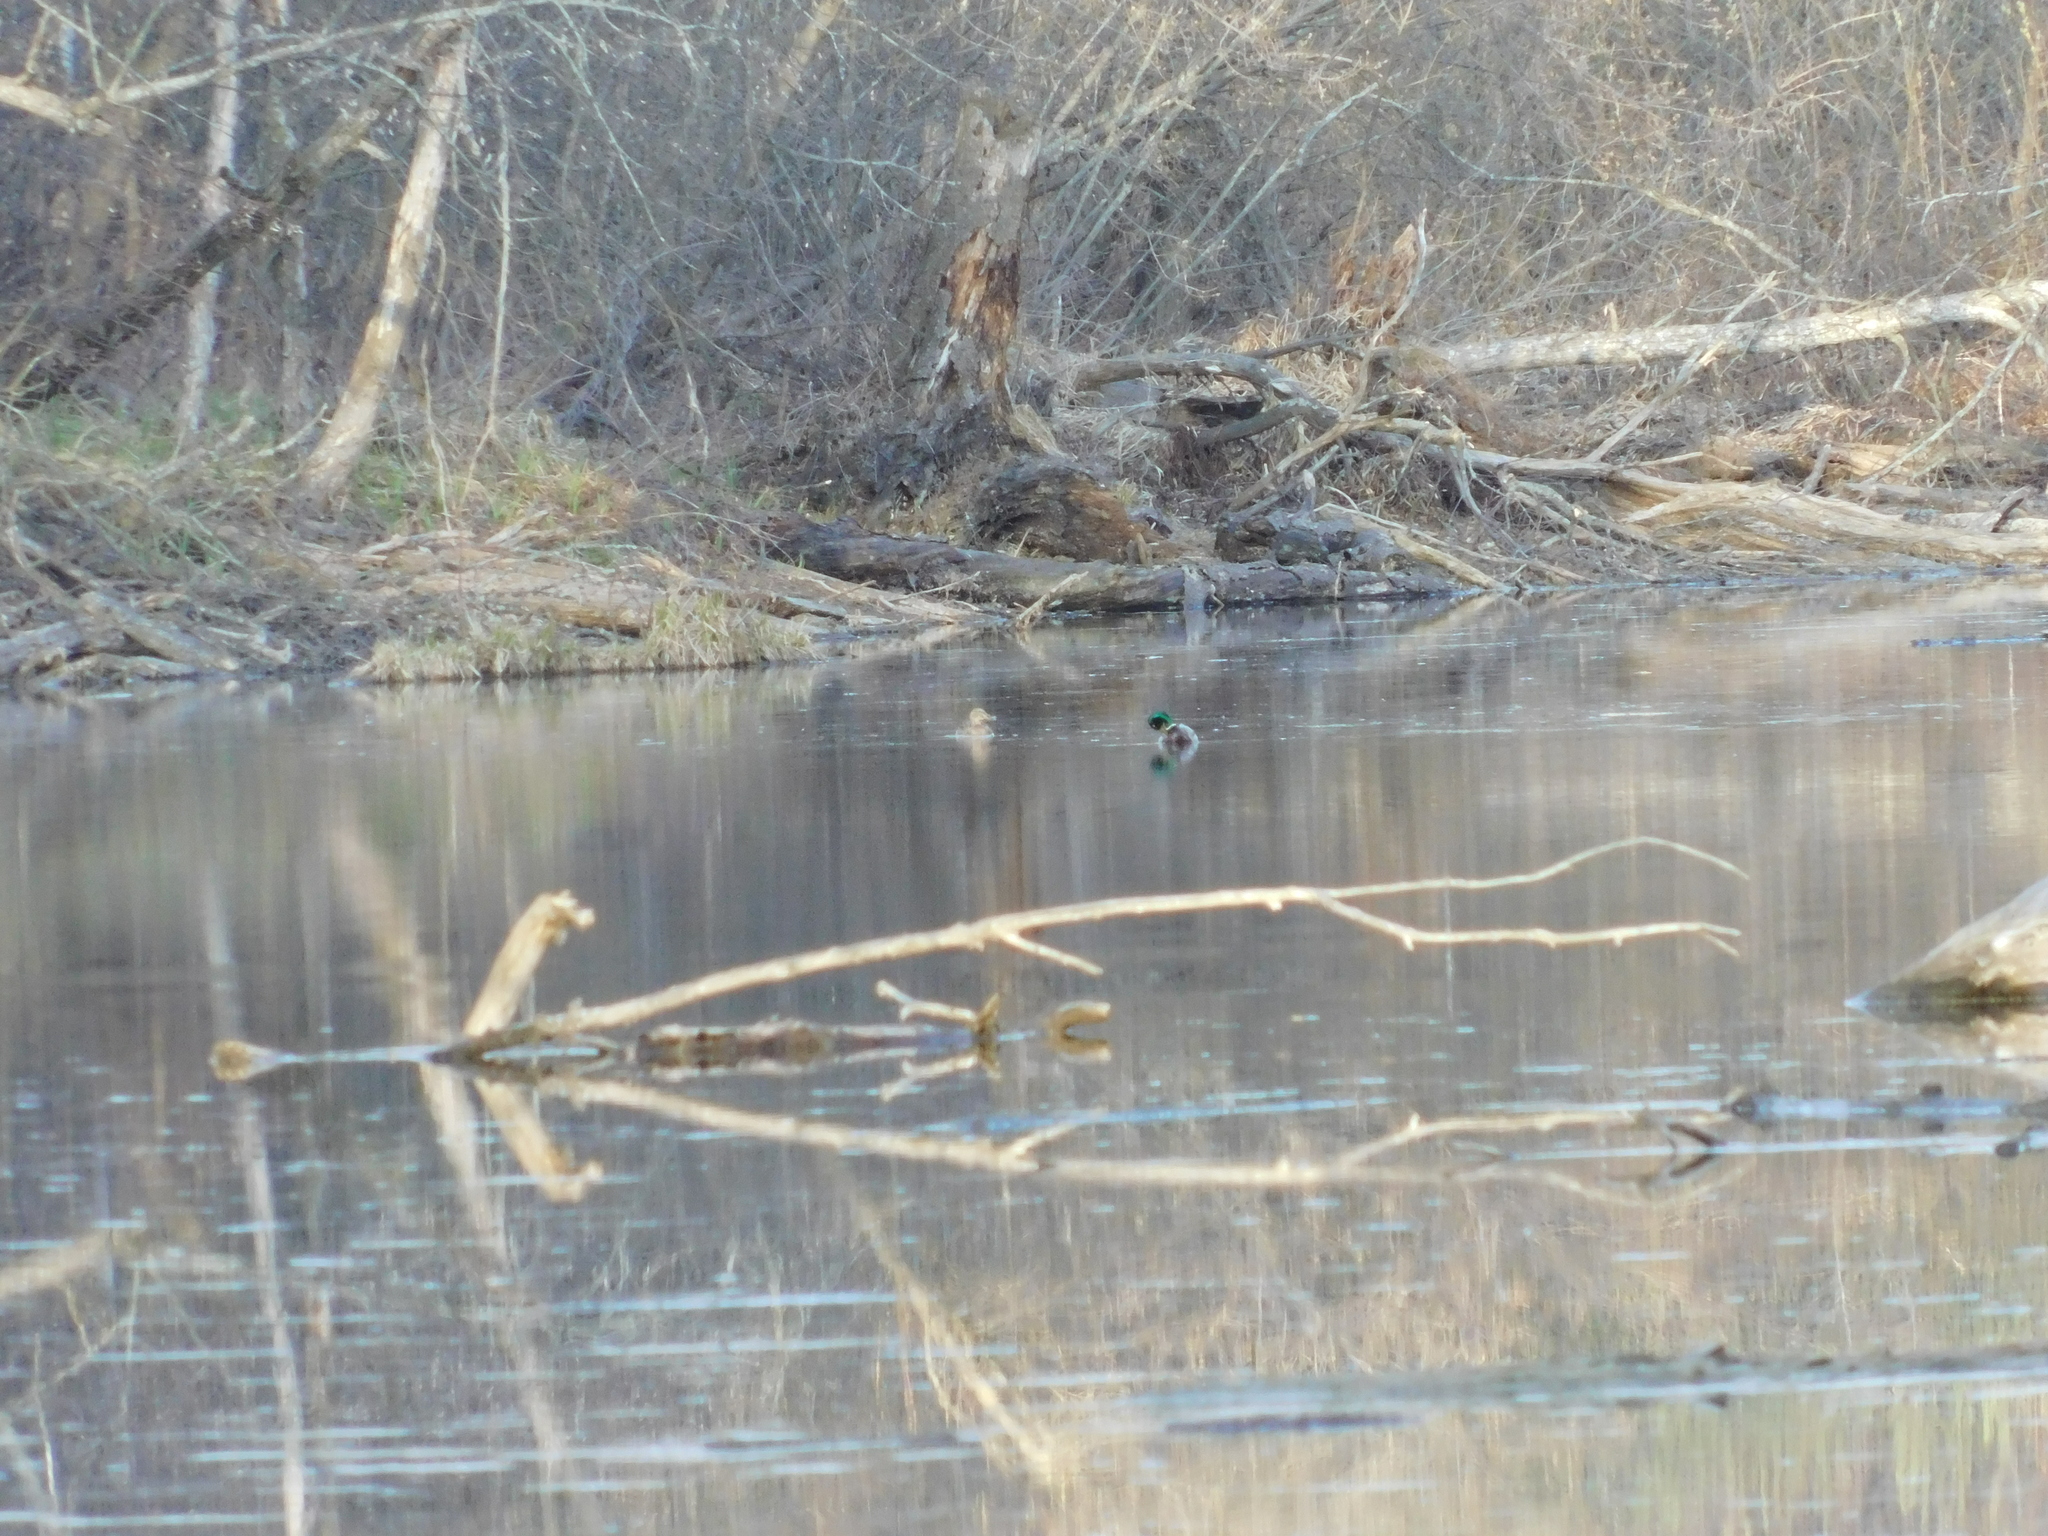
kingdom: Animalia
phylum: Chordata
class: Aves
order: Anseriformes
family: Anatidae
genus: Anas
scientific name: Anas platyrhynchos
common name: Mallard
